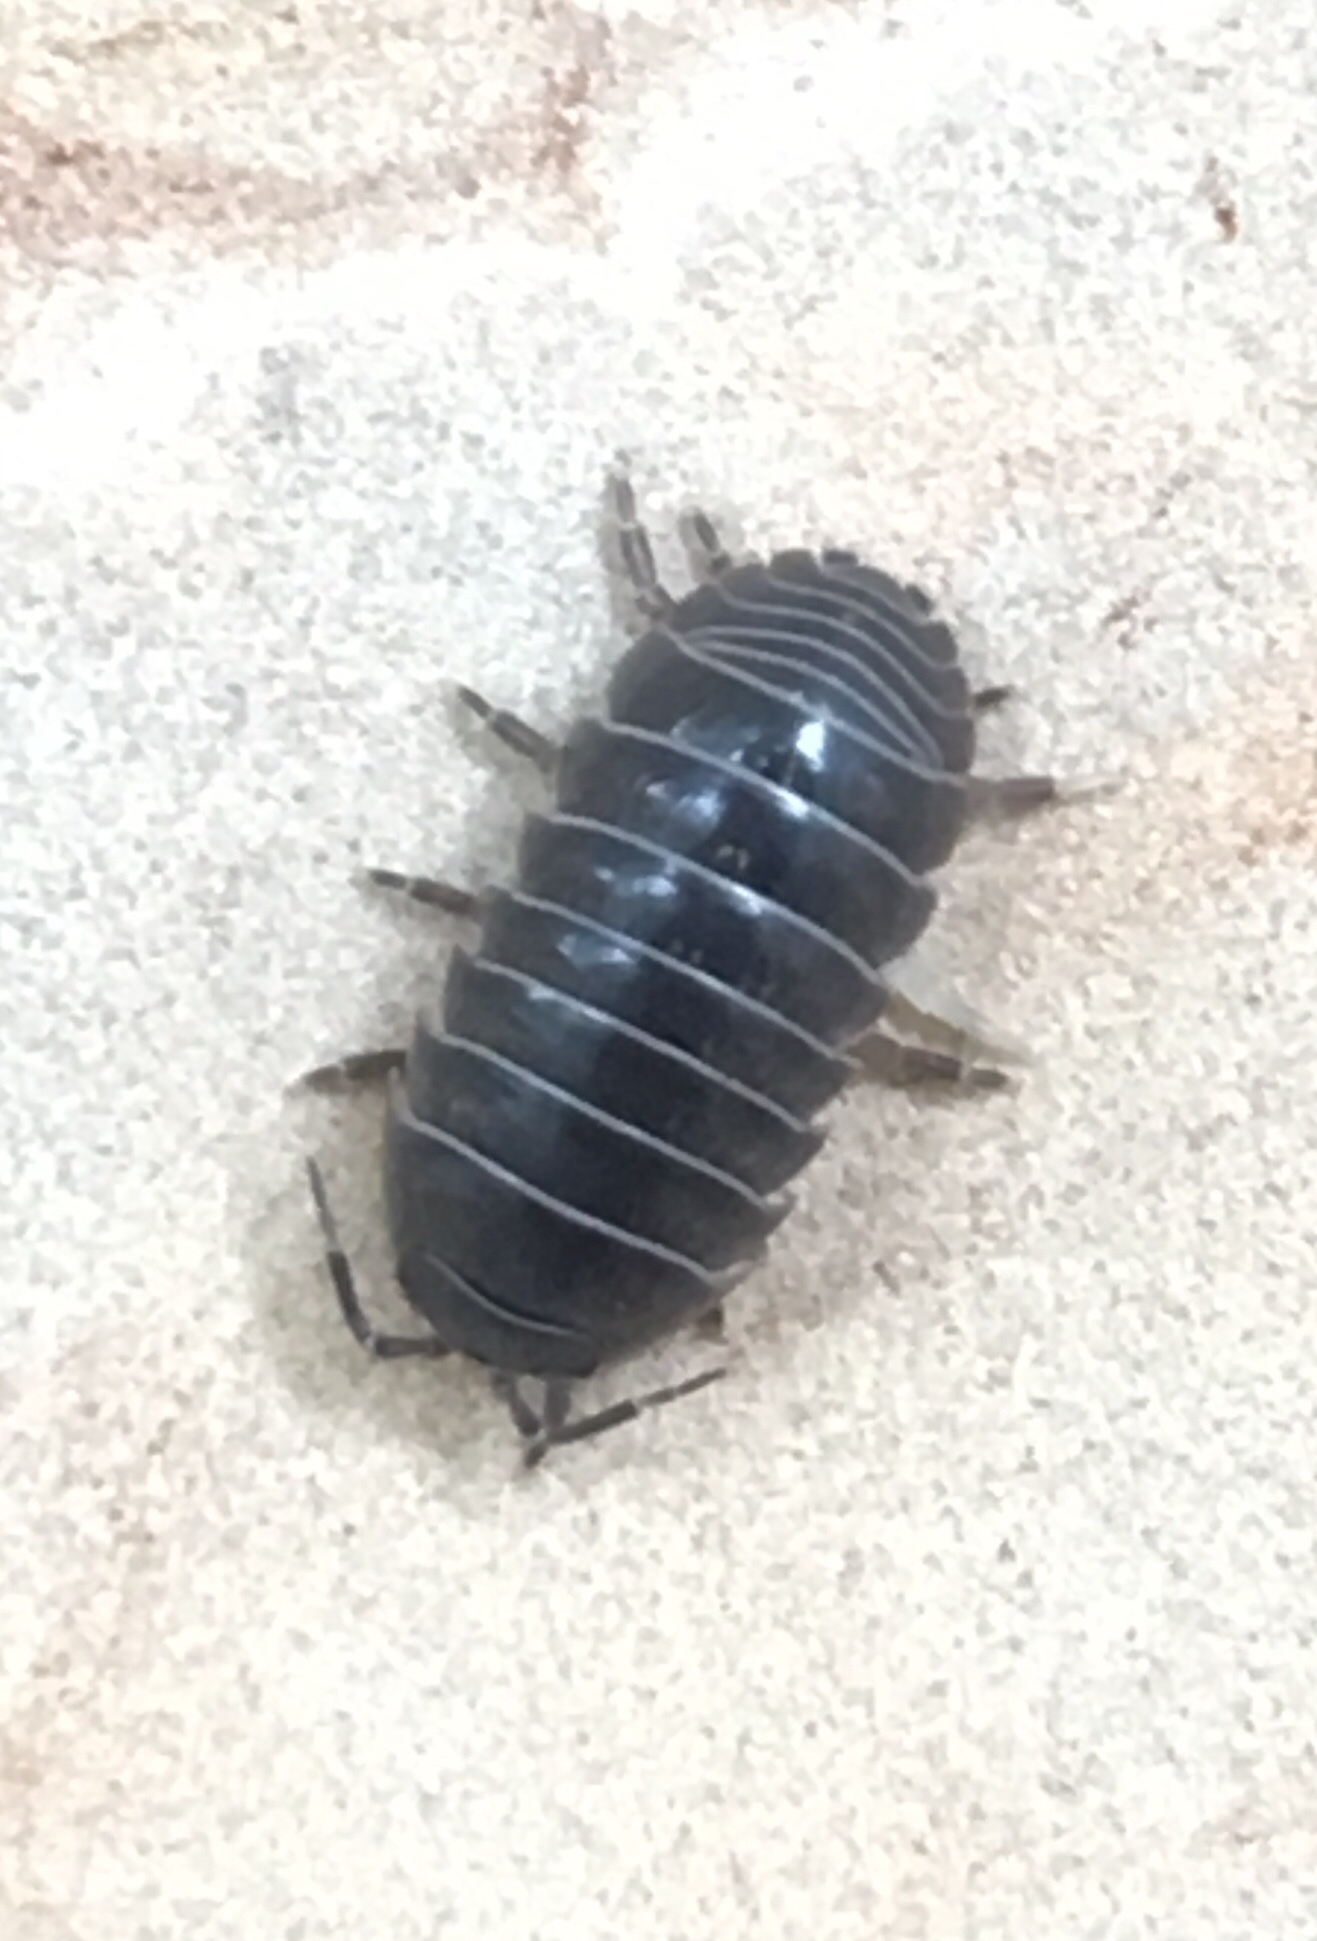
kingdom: Animalia
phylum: Arthropoda
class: Malacostraca
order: Isopoda
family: Armadillidiidae
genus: Armadillidium
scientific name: Armadillidium vulgare
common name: Common pill woodlouse
